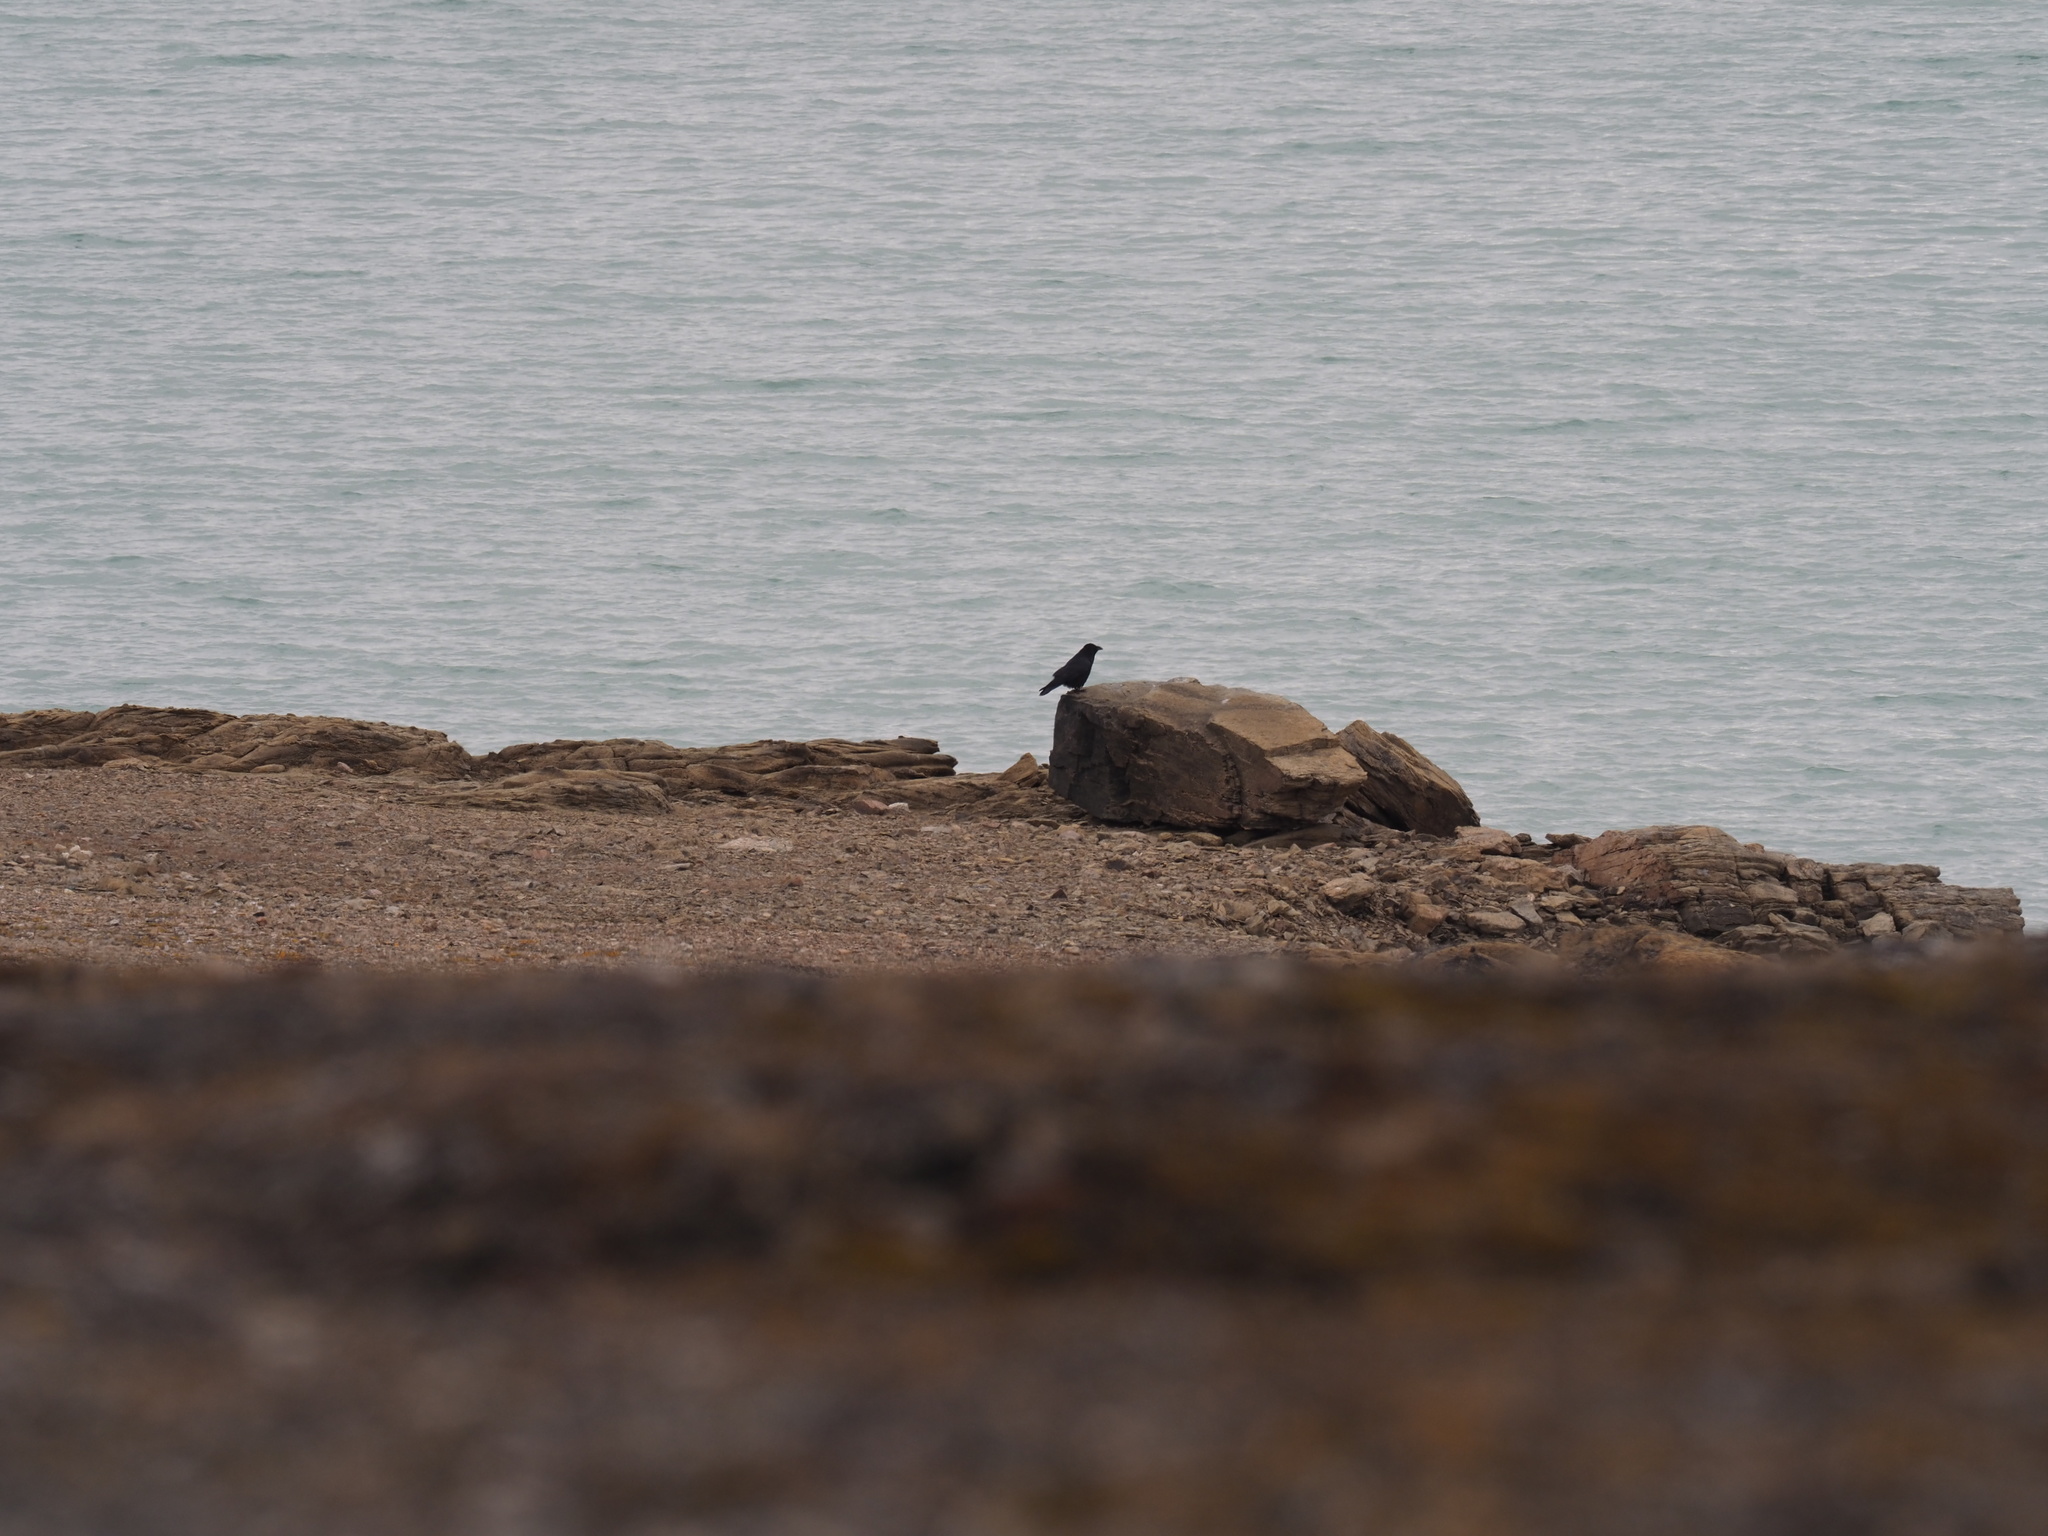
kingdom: Animalia
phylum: Chordata
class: Aves
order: Passeriformes
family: Corvidae
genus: Corvus
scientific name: Corvus corax
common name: Common raven
